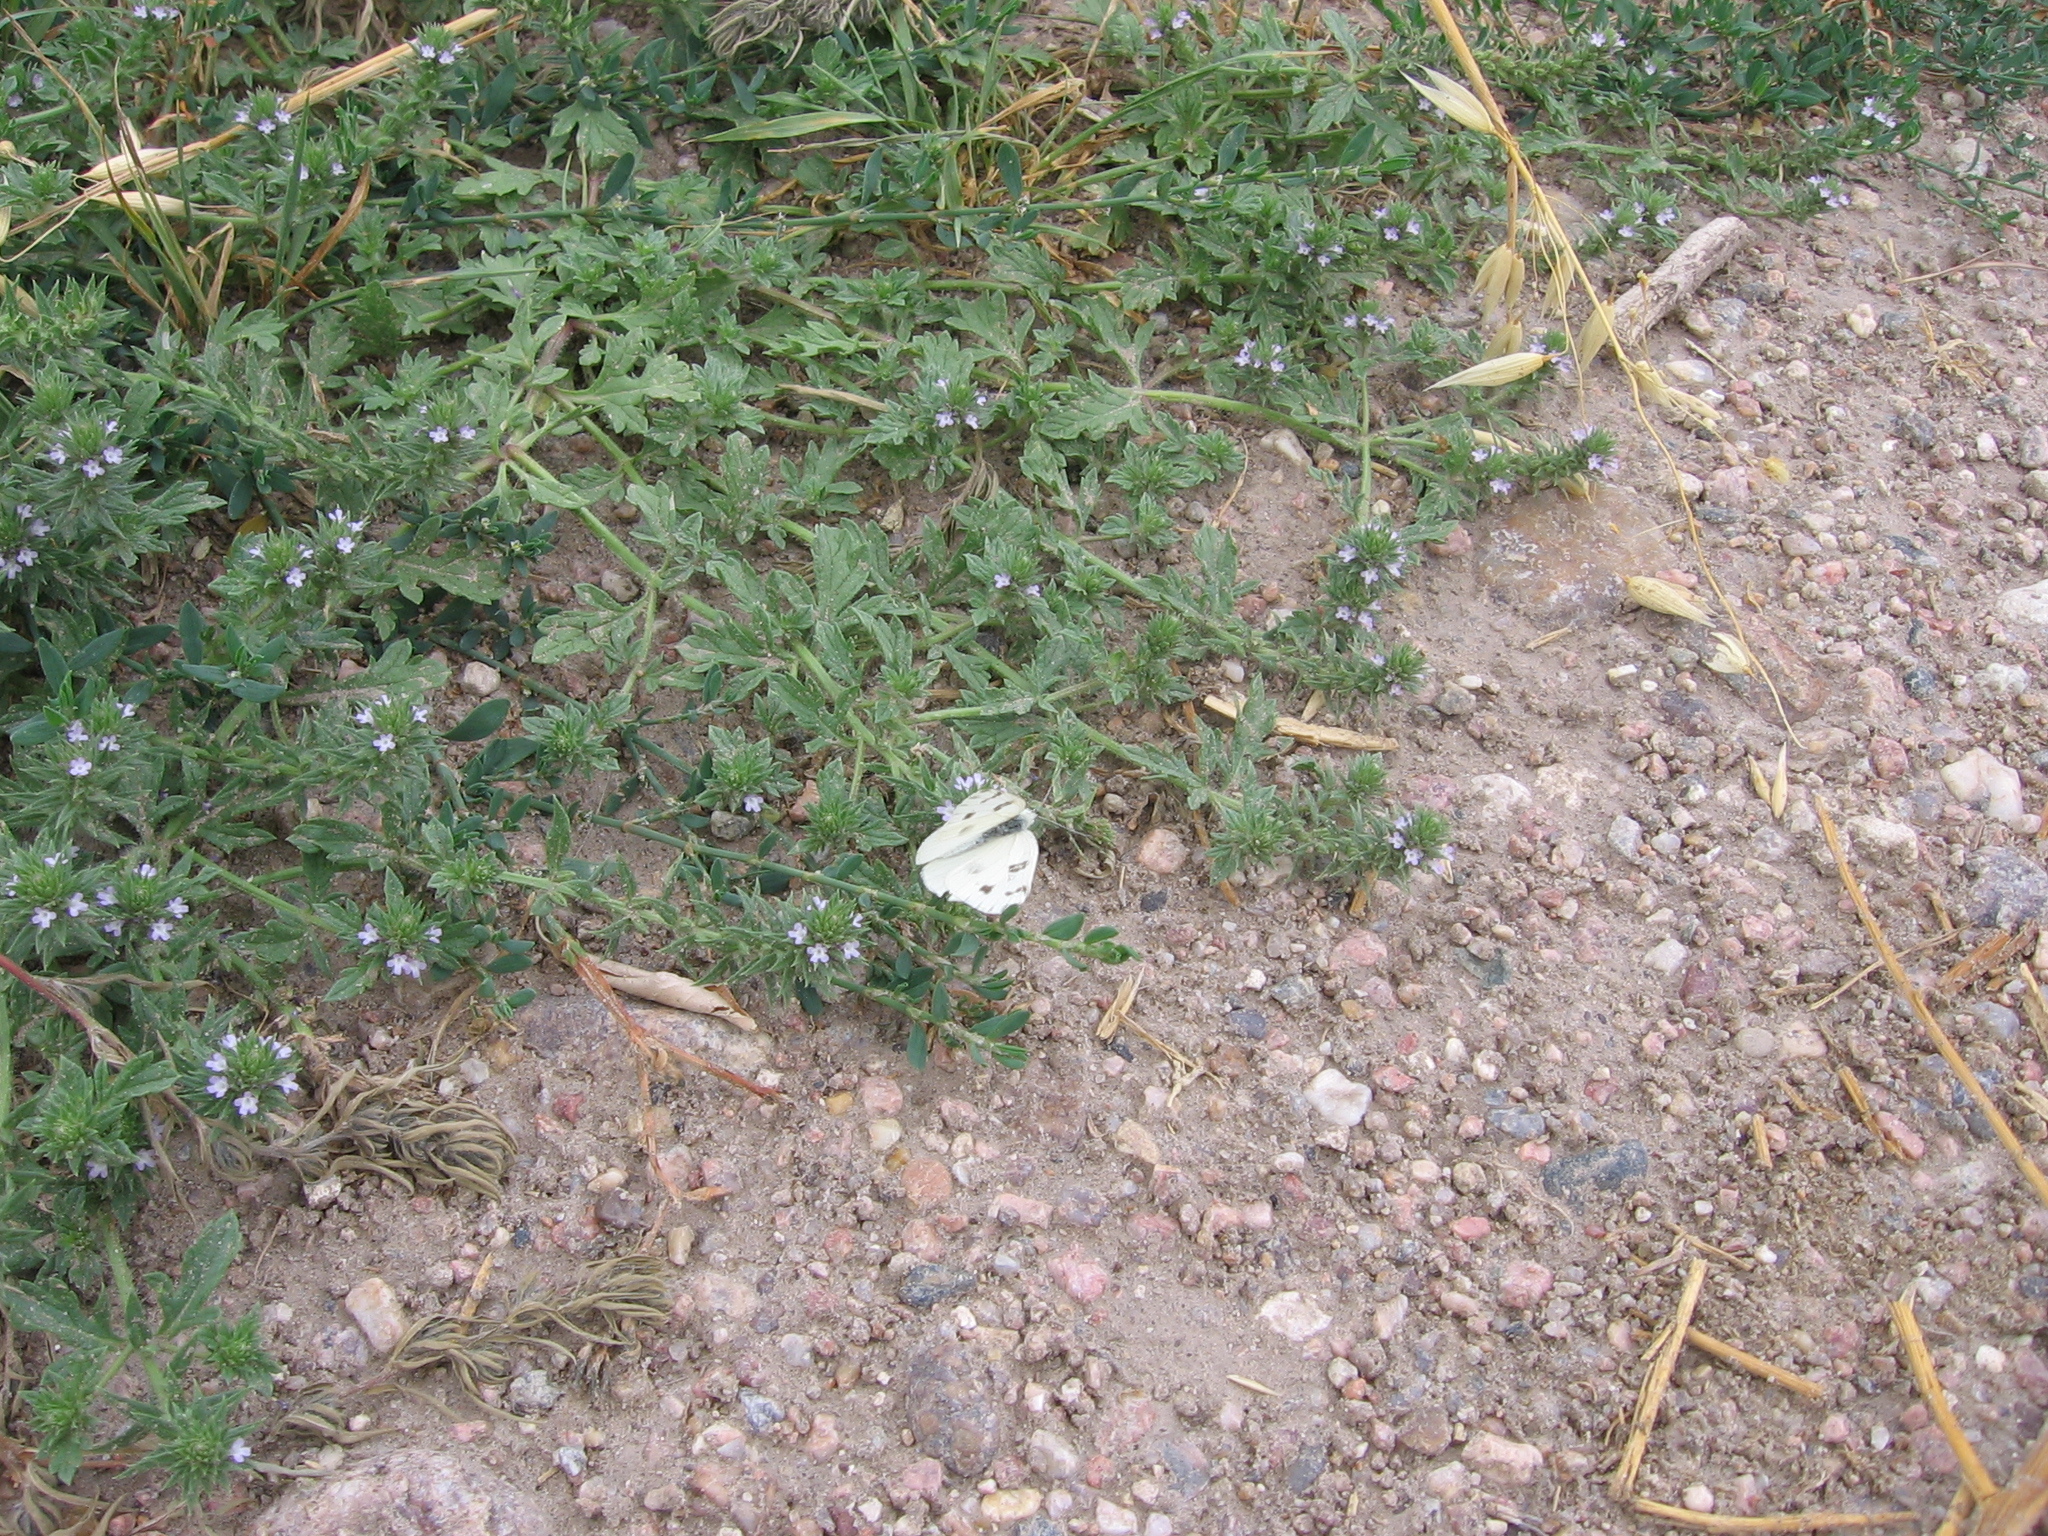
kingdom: Animalia
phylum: Arthropoda
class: Insecta
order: Lepidoptera
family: Pieridae
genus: Pontia
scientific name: Pontia protodice
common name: Checkered white
